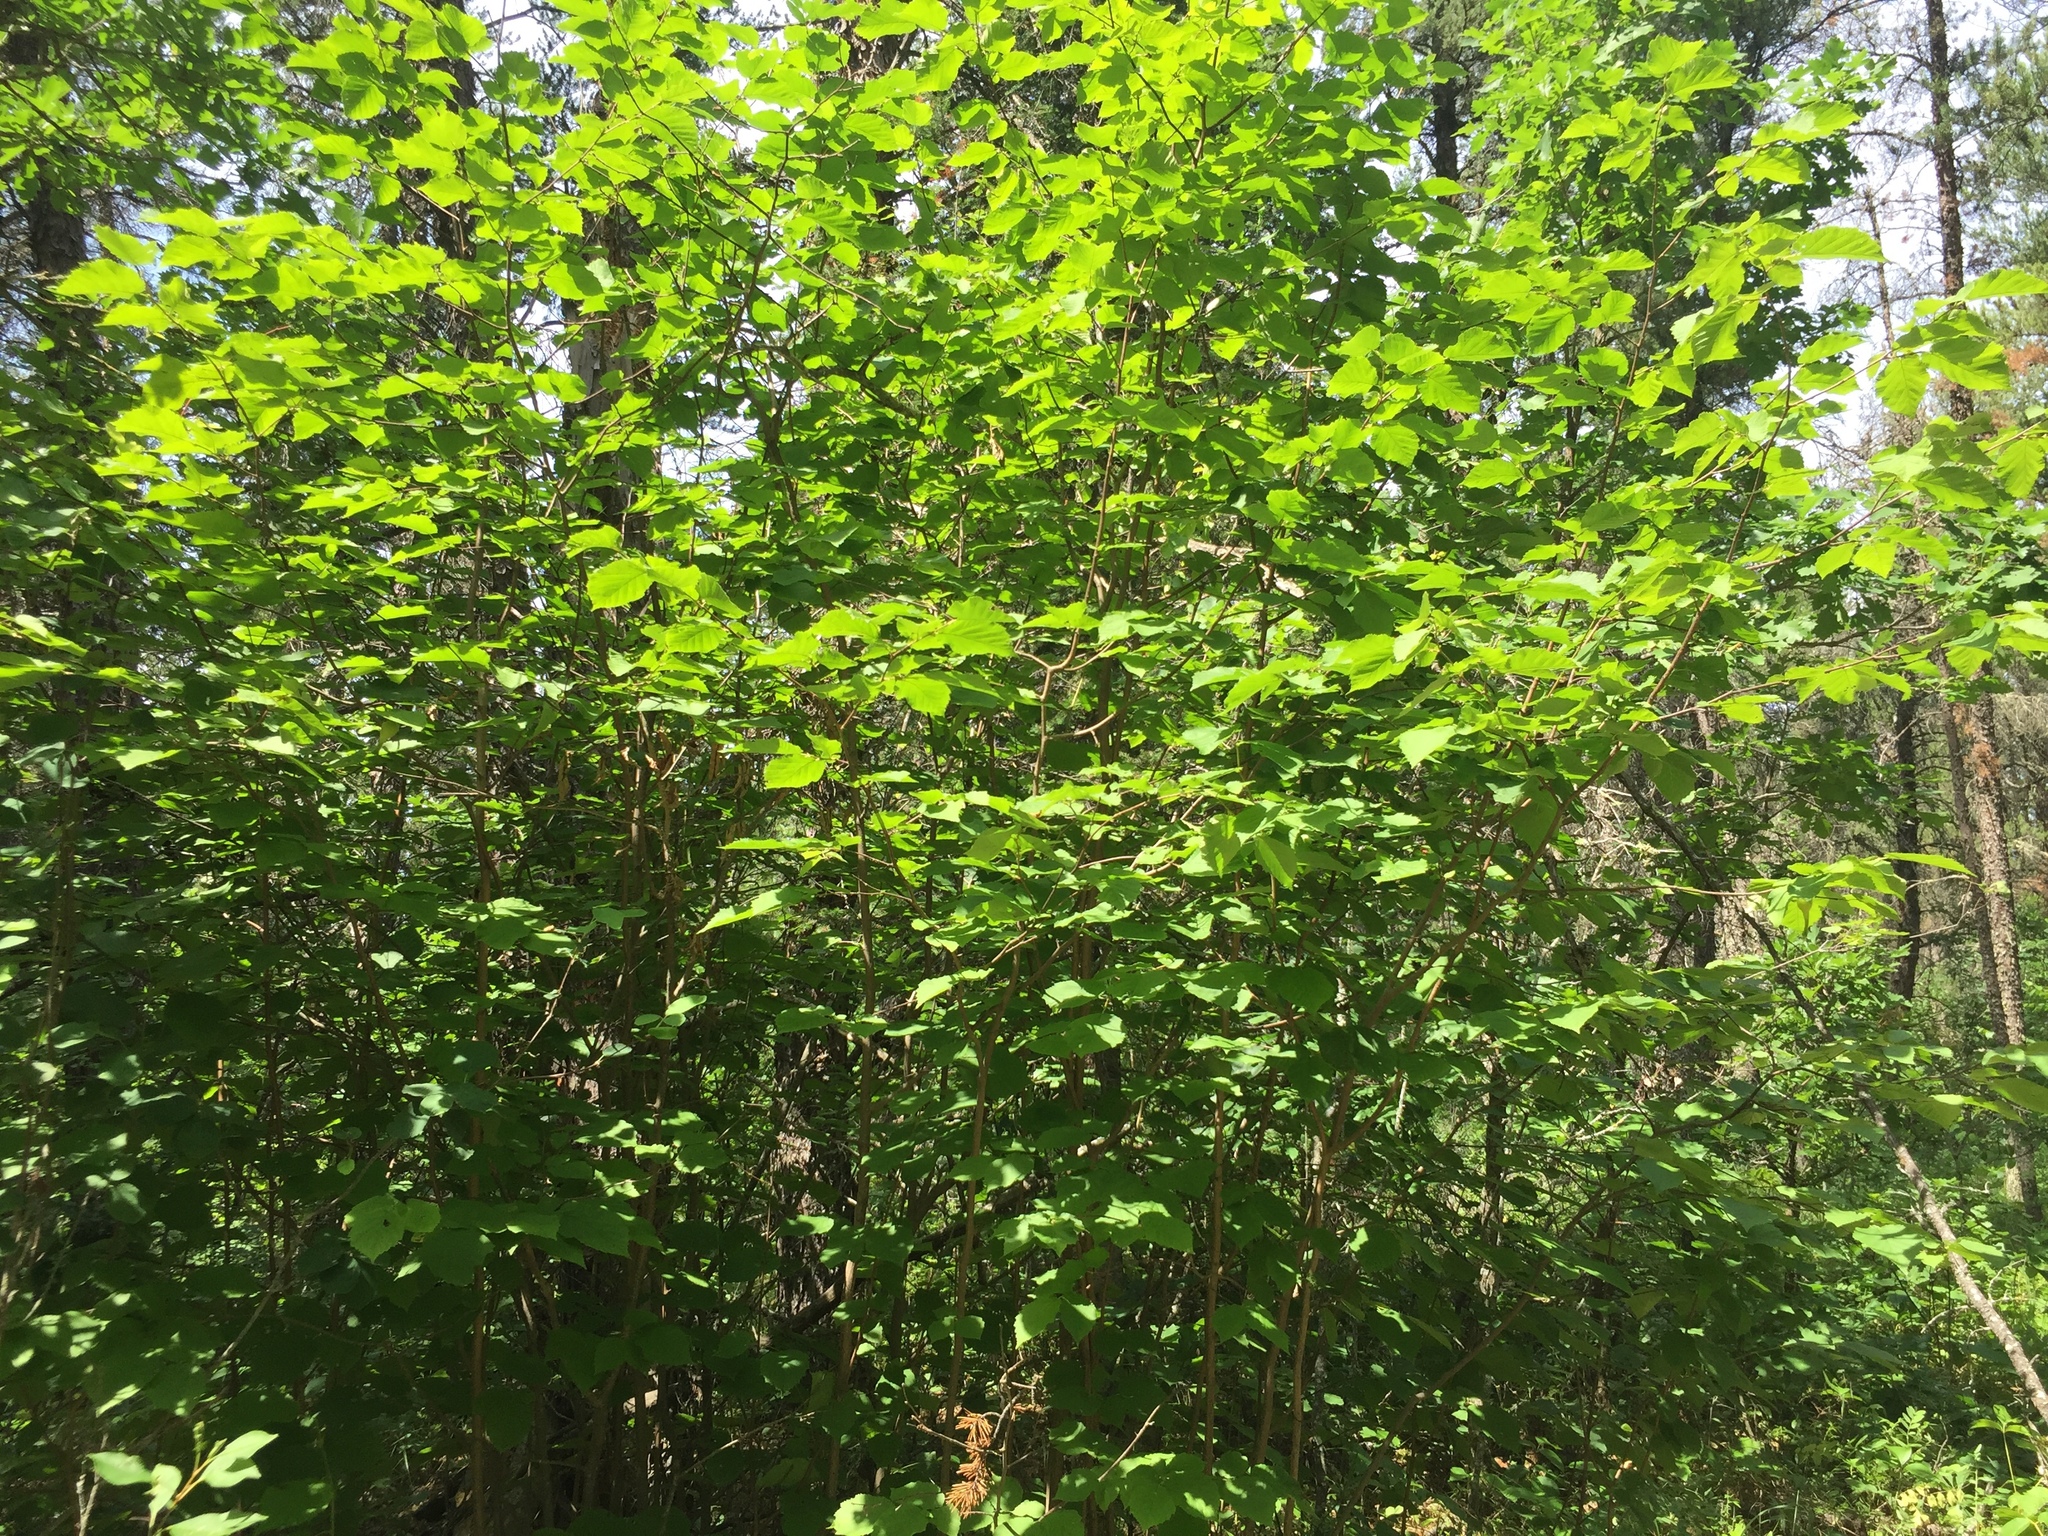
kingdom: Plantae
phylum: Tracheophyta
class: Magnoliopsida
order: Fagales
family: Betulaceae
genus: Corylus
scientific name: Corylus cornuta
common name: Beaked hazel
